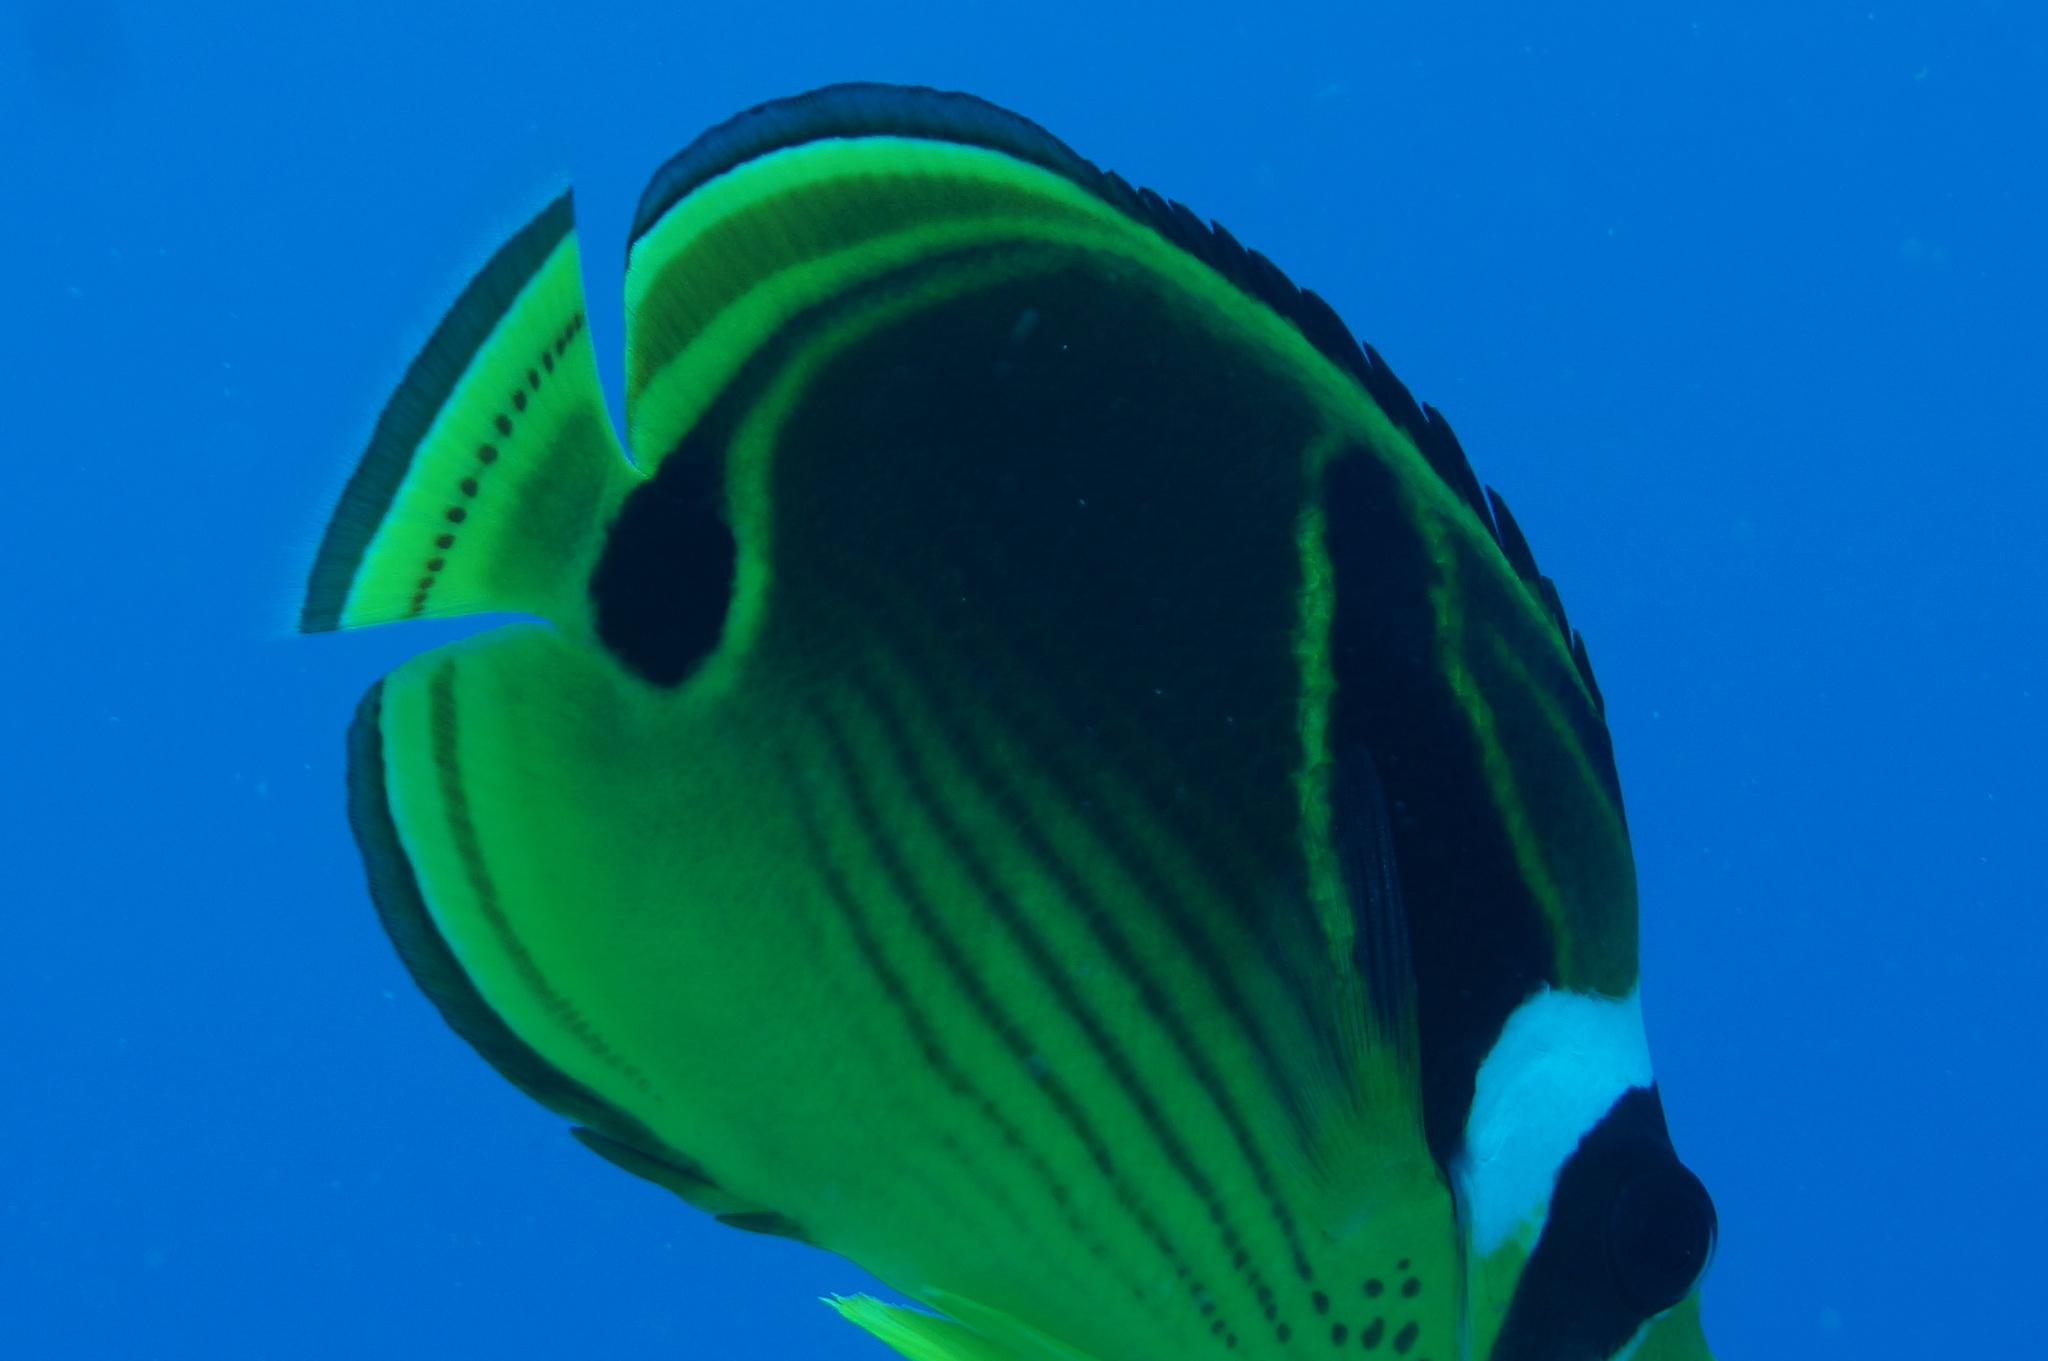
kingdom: Animalia
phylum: Chordata
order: Perciformes
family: Chaetodontidae
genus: Chaetodon
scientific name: Chaetodon lunula
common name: Raccoon butterflyfish
